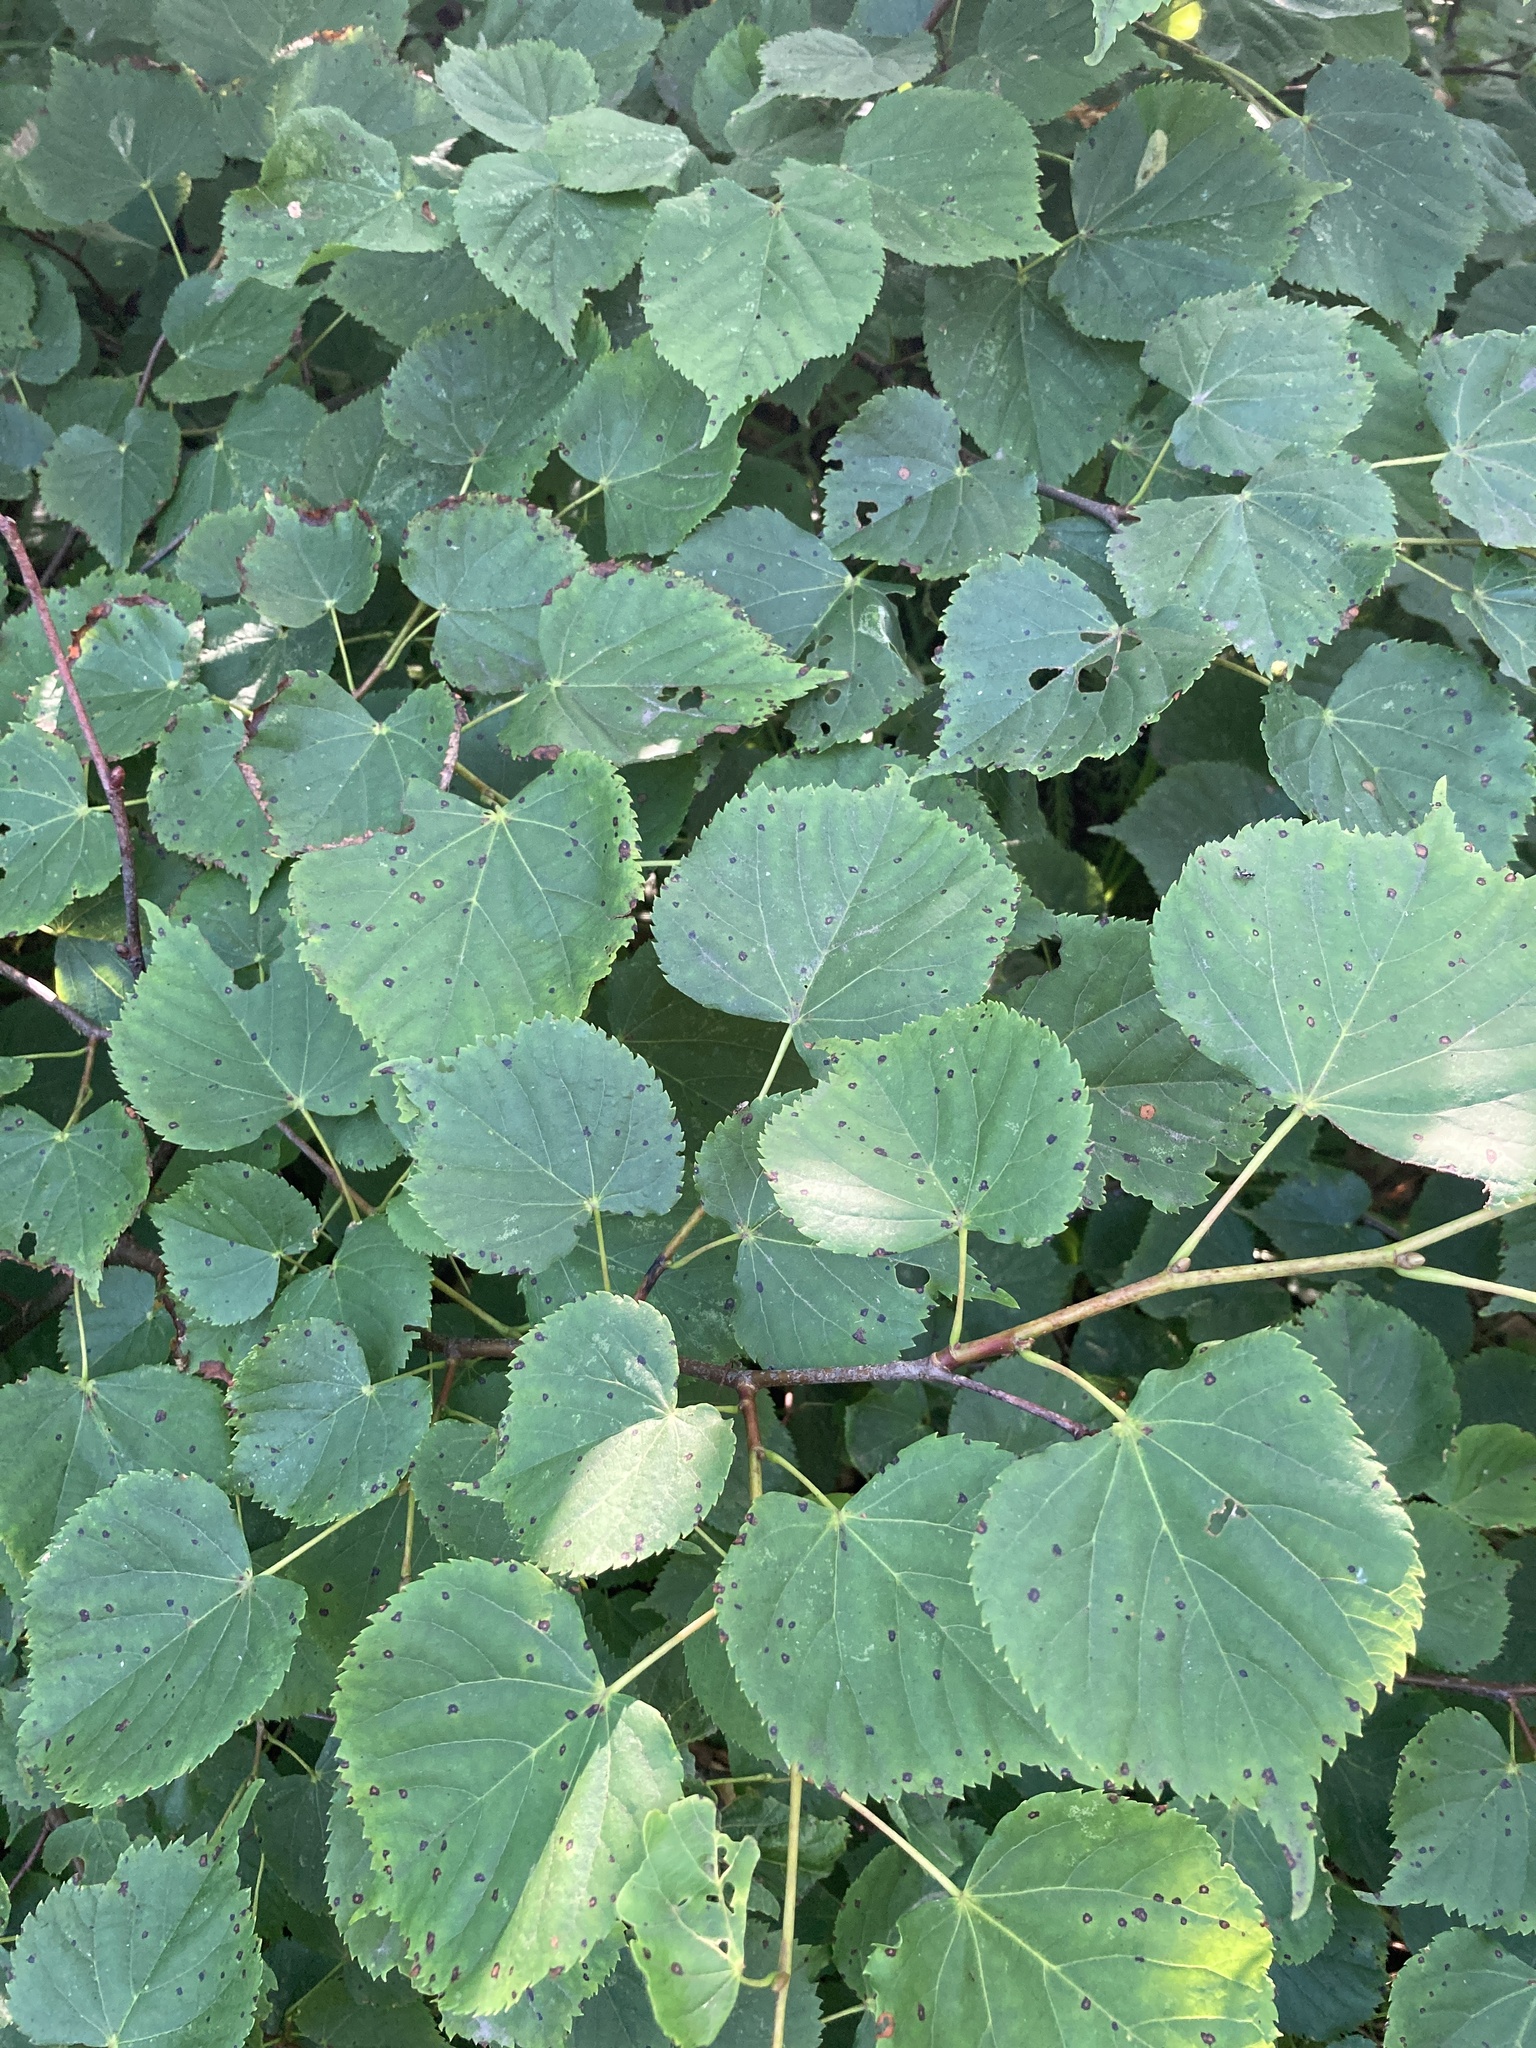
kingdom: Plantae
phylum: Tracheophyta
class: Magnoliopsida
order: Malvales
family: Malvaceae
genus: Tilia
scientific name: Tilia cordata
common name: Small-leaved lime
